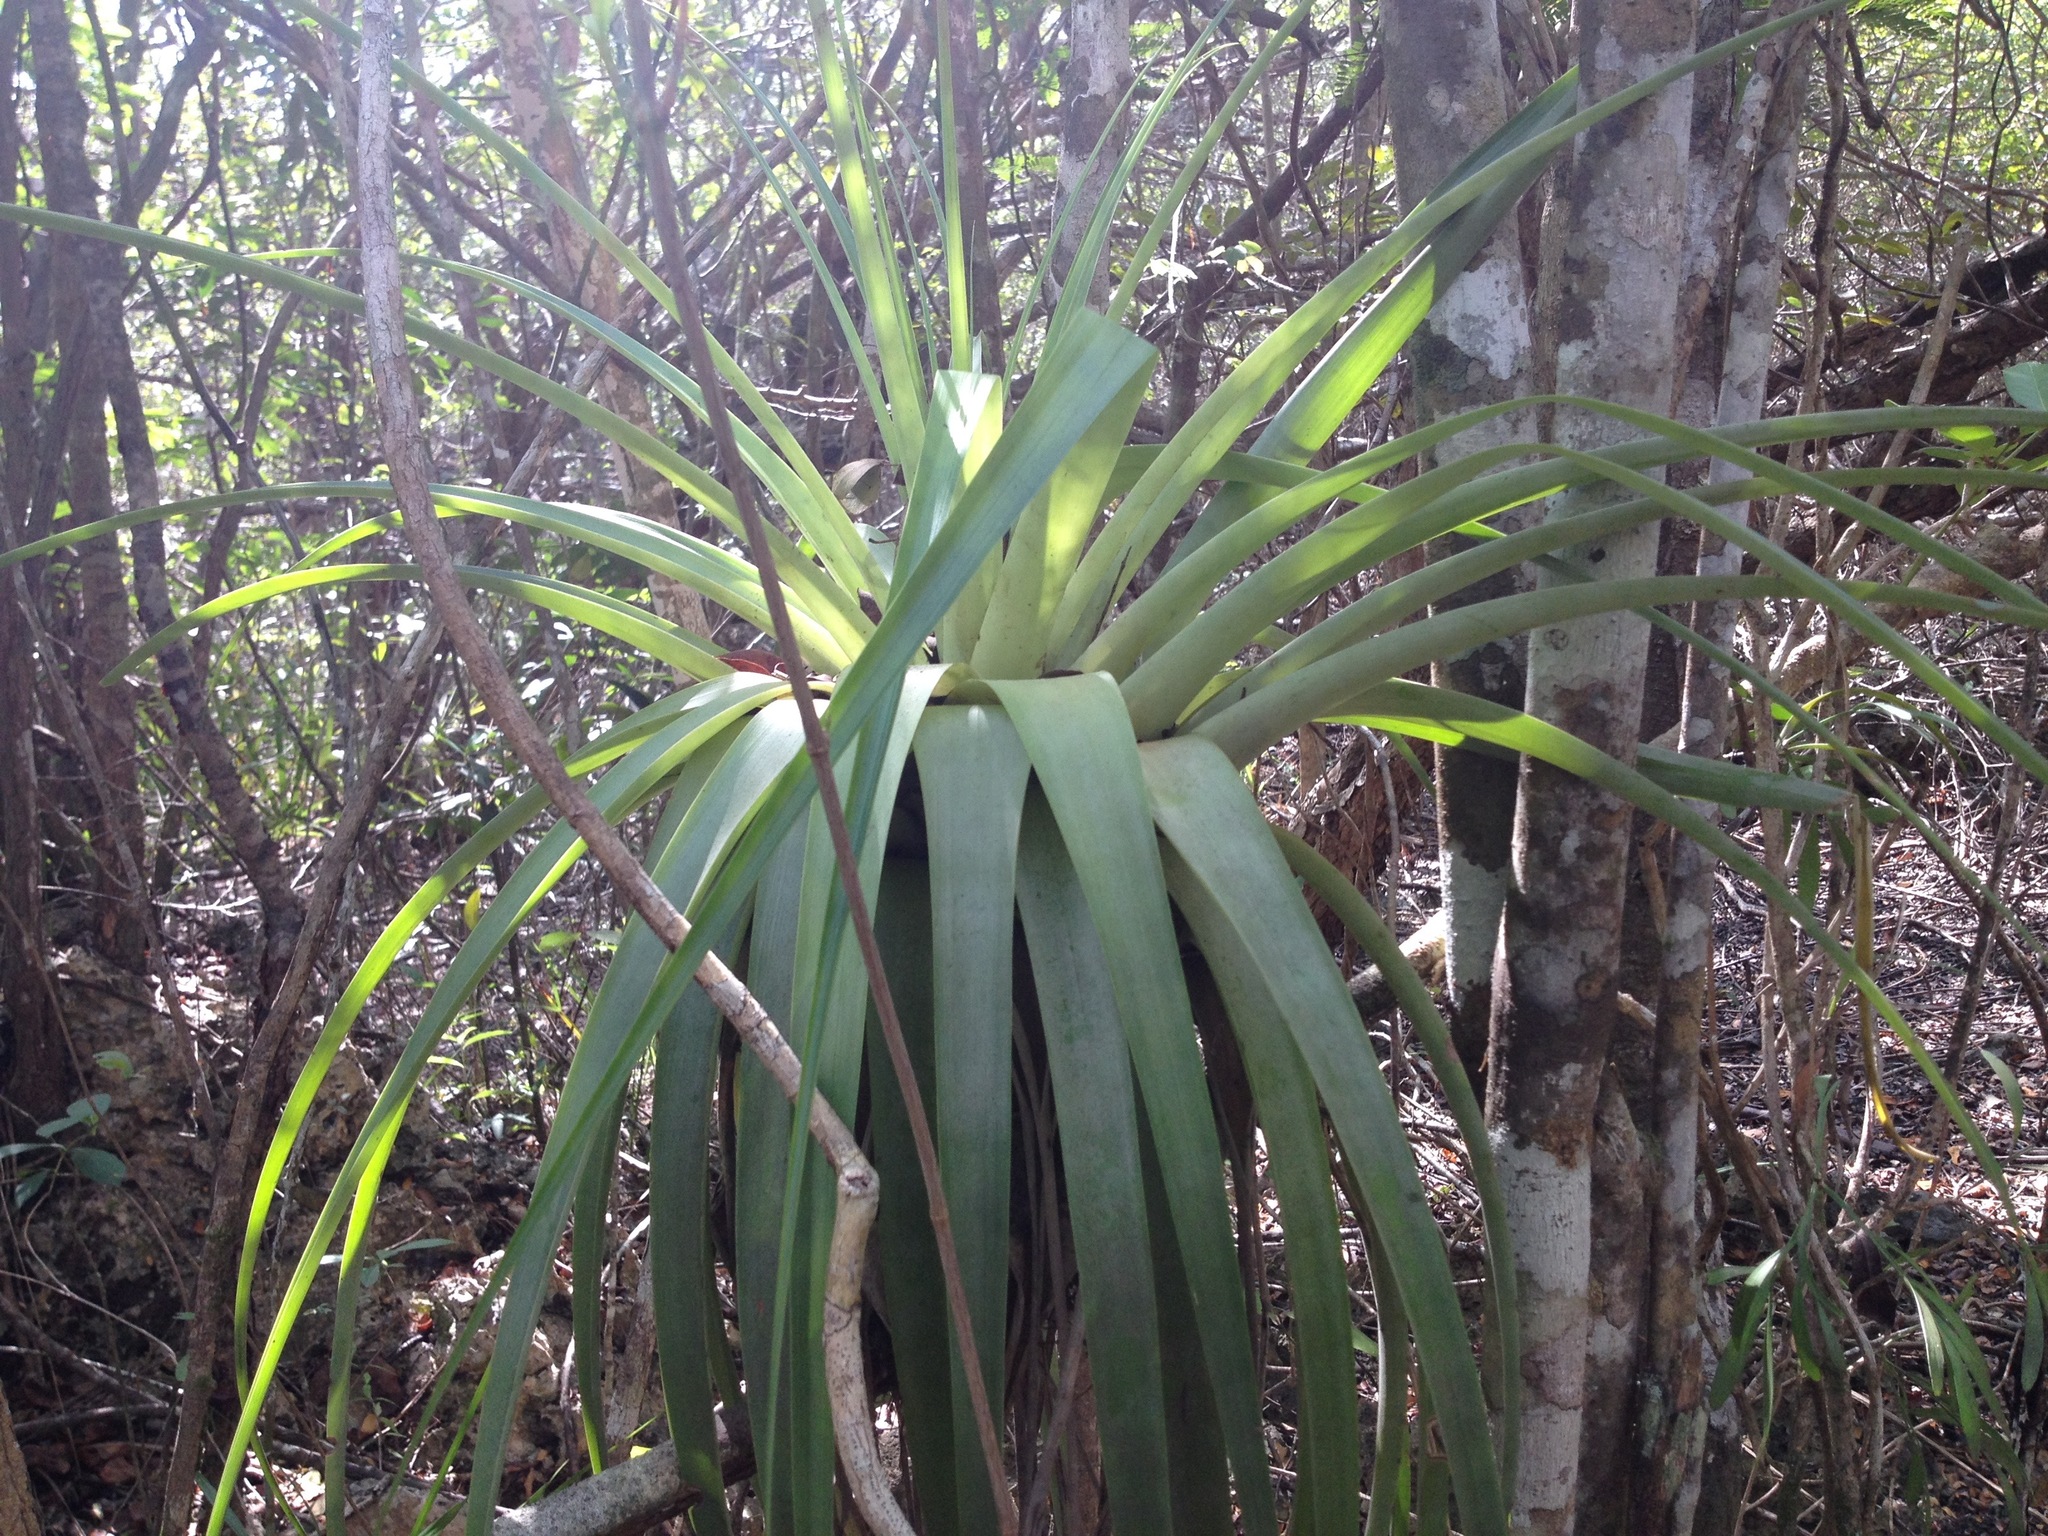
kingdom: Plantae
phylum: Tracheophyta
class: Liliopsida
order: Poales
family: Bromeliaceae
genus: Tillandsia
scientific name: Tillandsia utriculata
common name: Wild pine
